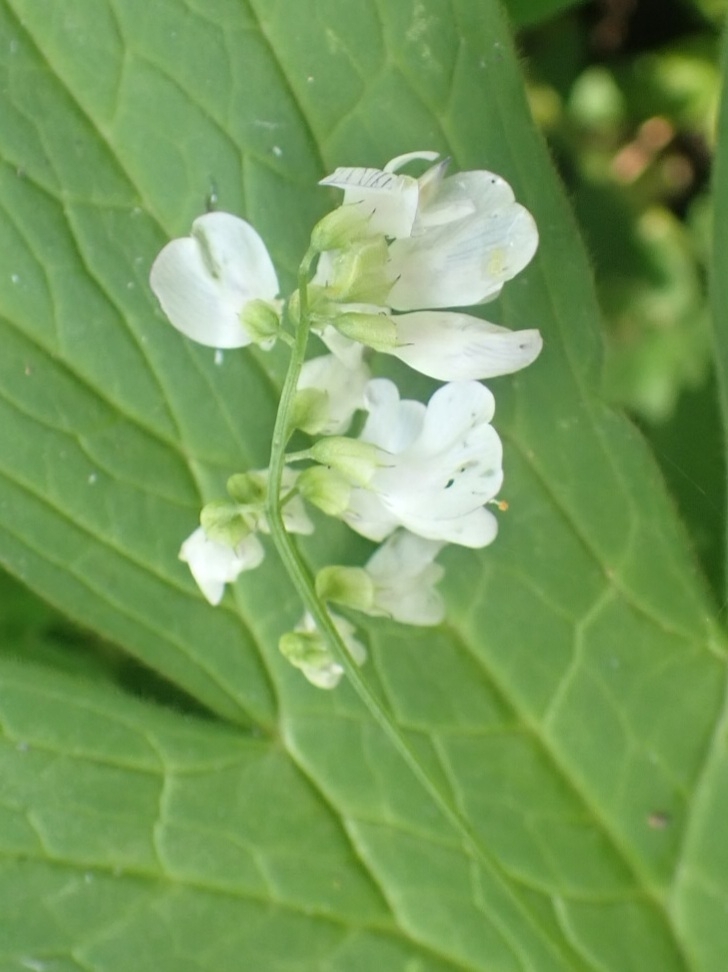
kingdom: Plantae
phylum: Tracheophyta
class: Magnoliopsida
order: Fabales
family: Fabaceae
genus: Vicia
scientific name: Vicia sylvatica
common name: Wood vetch
